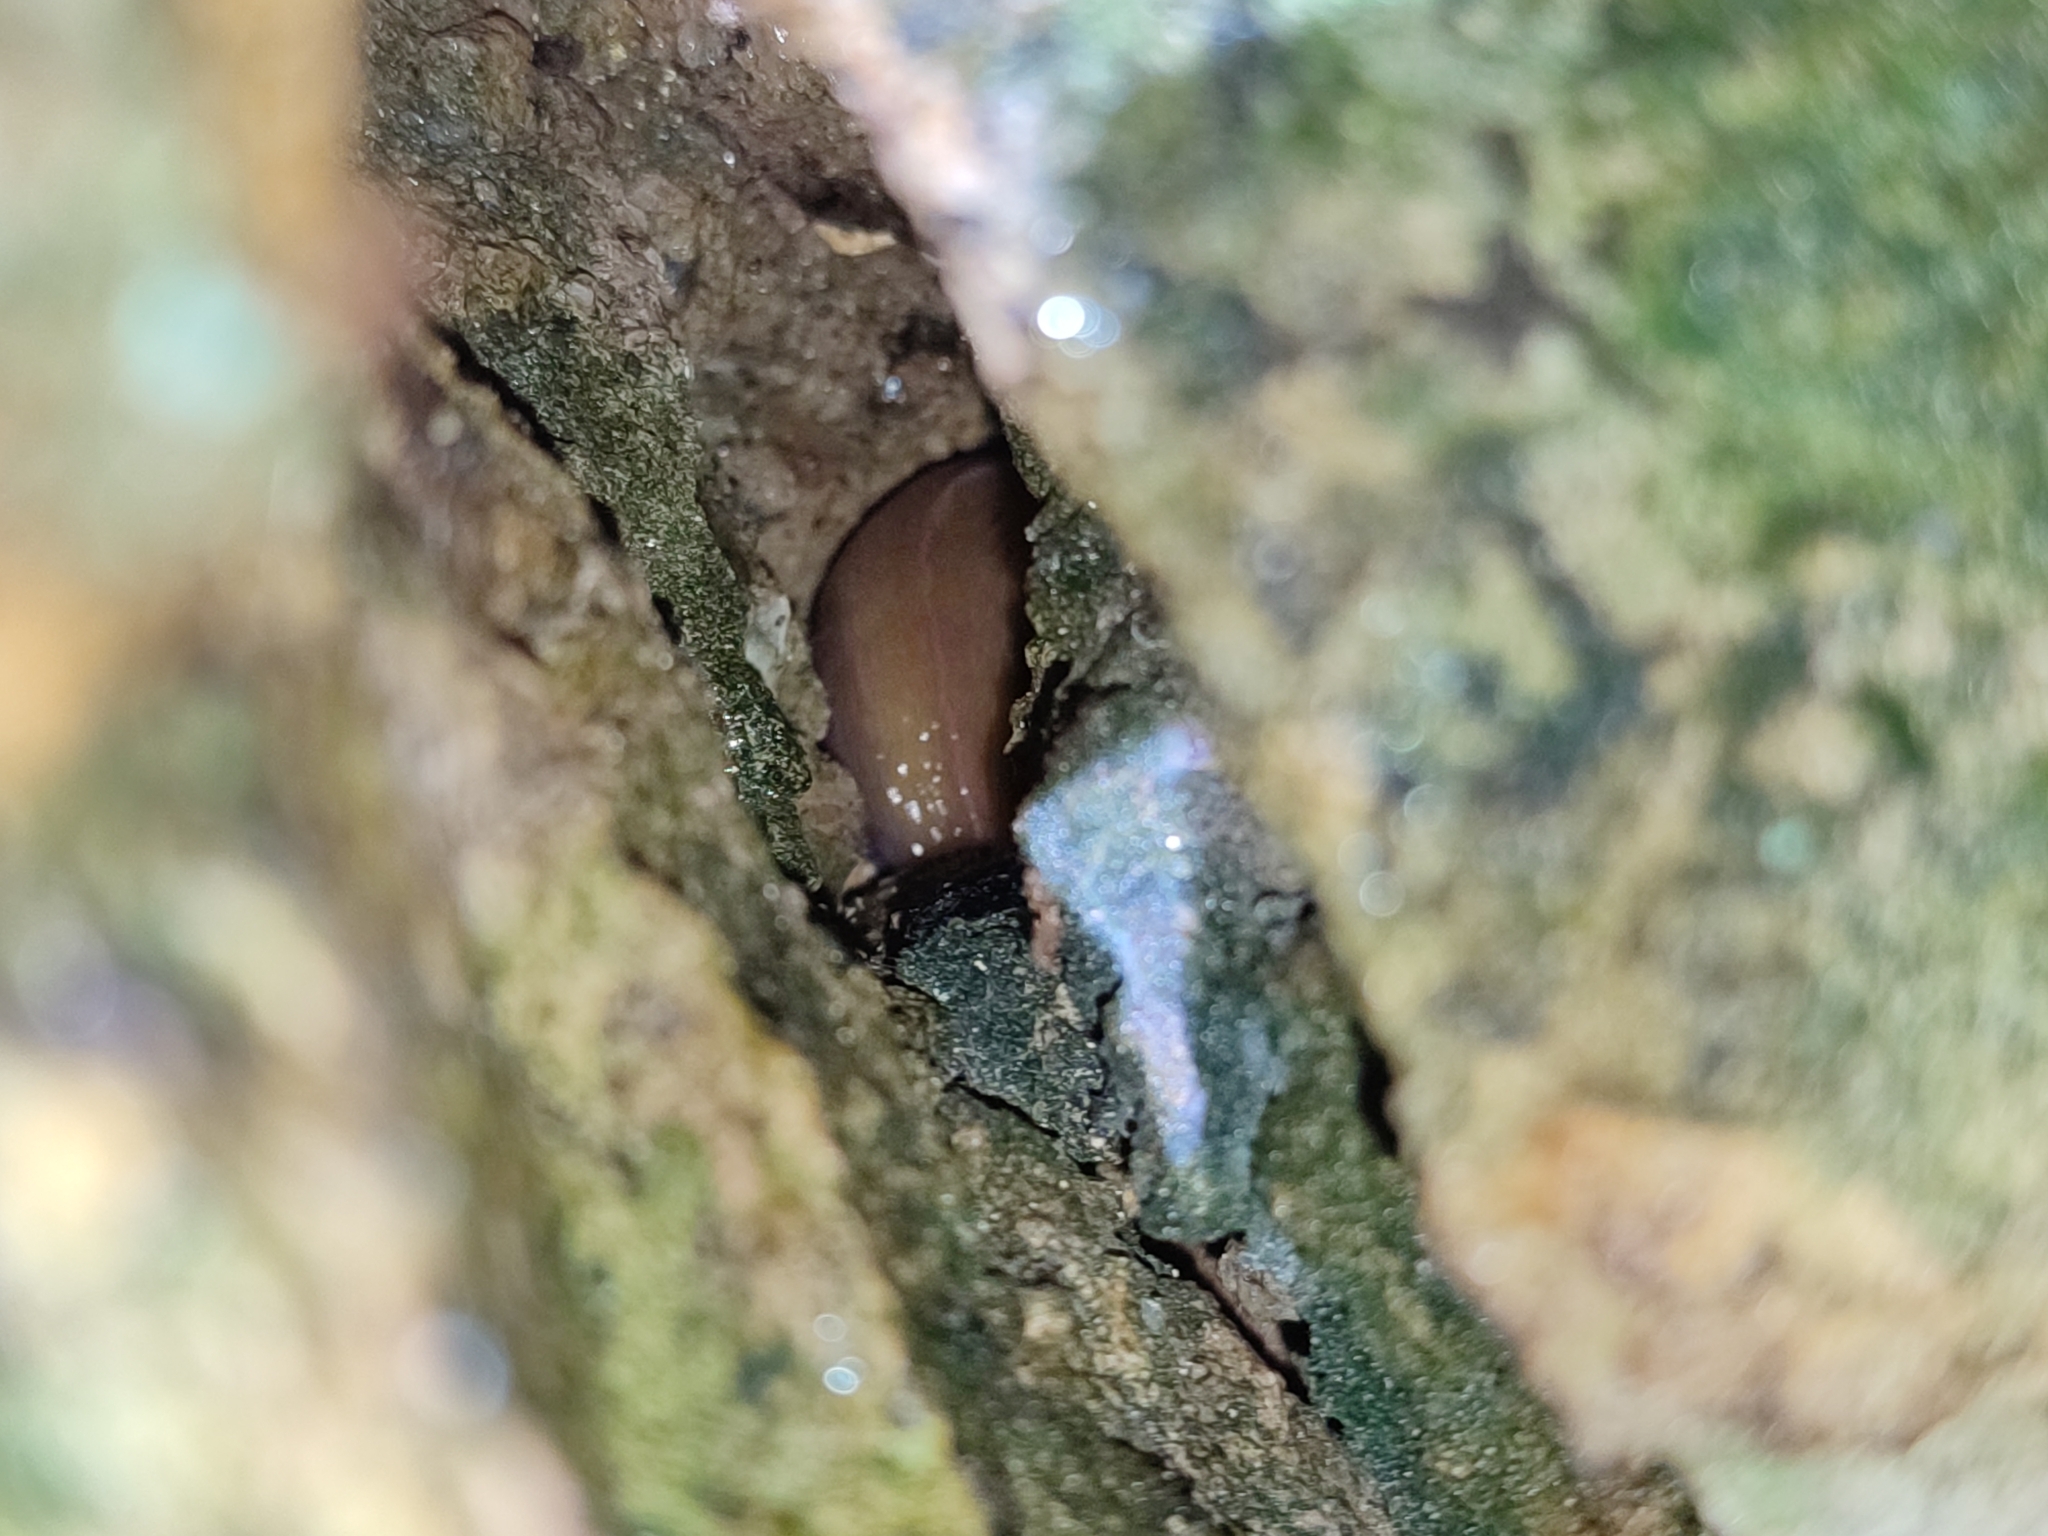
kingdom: Animalia
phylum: Mollusca
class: Gastropoda
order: Stylommatophora
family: Limacidae
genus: Bielzia
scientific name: Bielzia coerulans
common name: Carpathian blue slug
